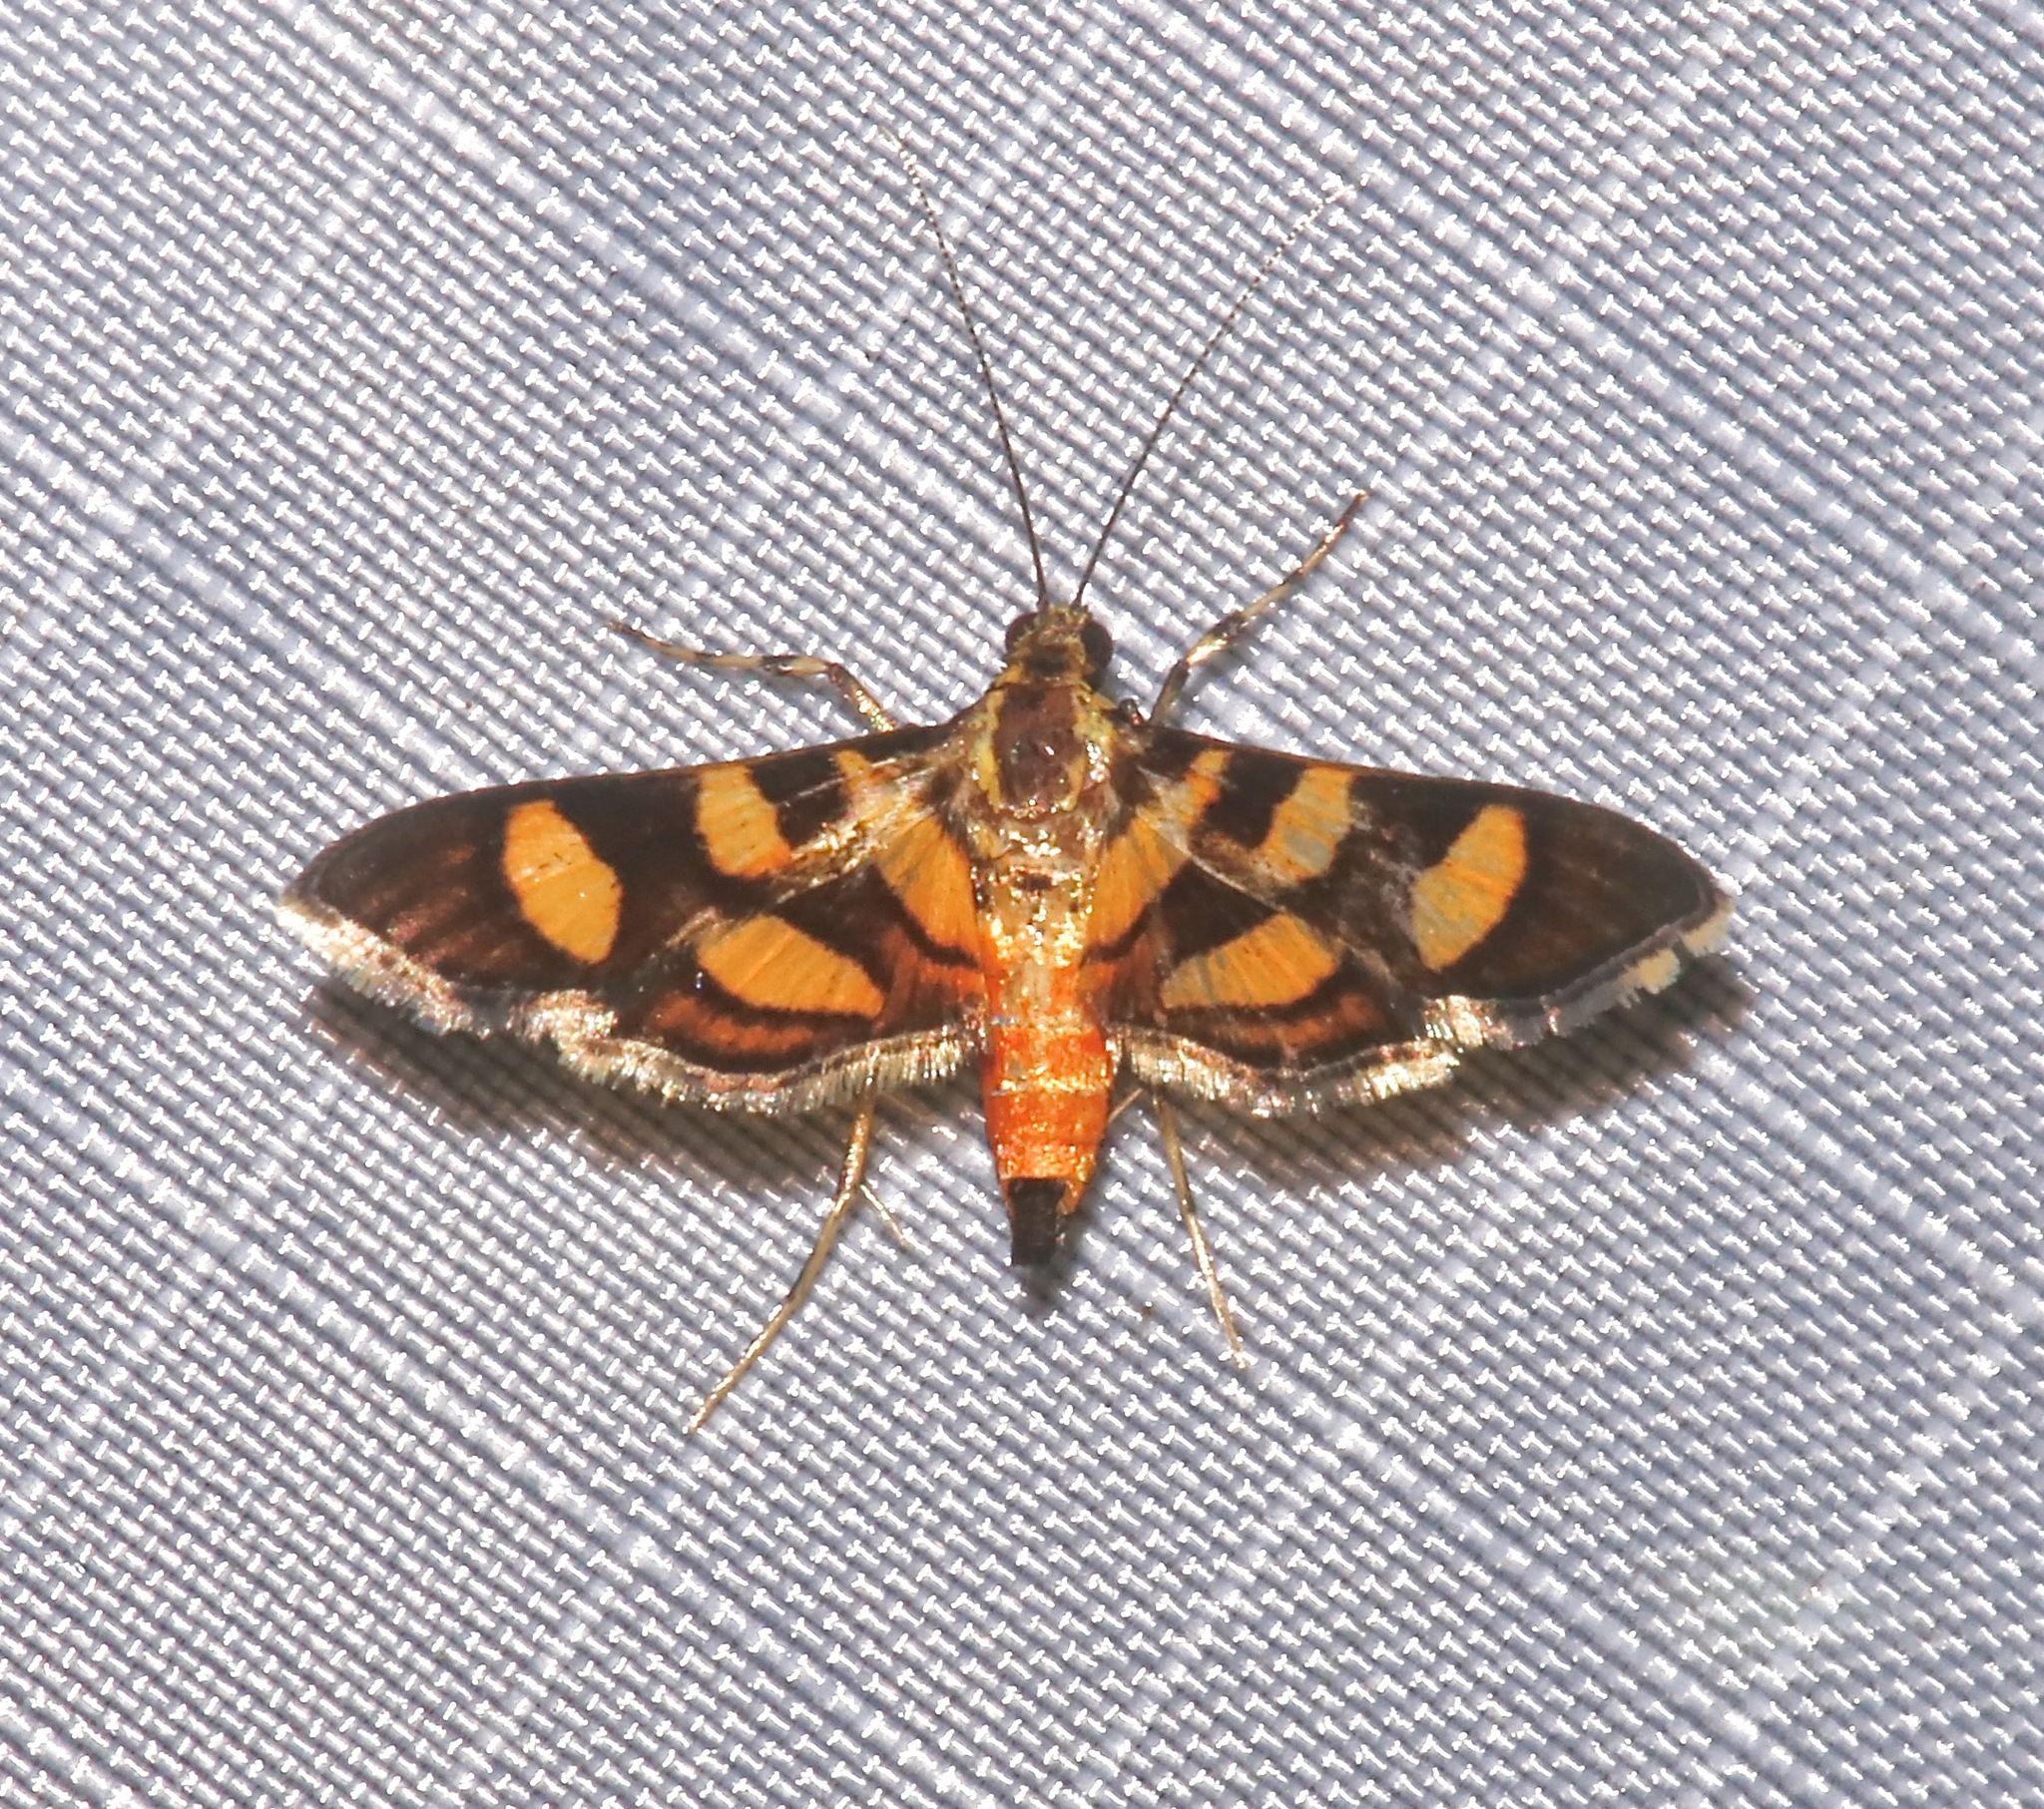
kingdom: Animalia
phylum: Arthropoda
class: Insecta
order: Lepidoptera
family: Crambidae
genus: Syngamia
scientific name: Syngamia florella
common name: Orange-spotted flower moth
